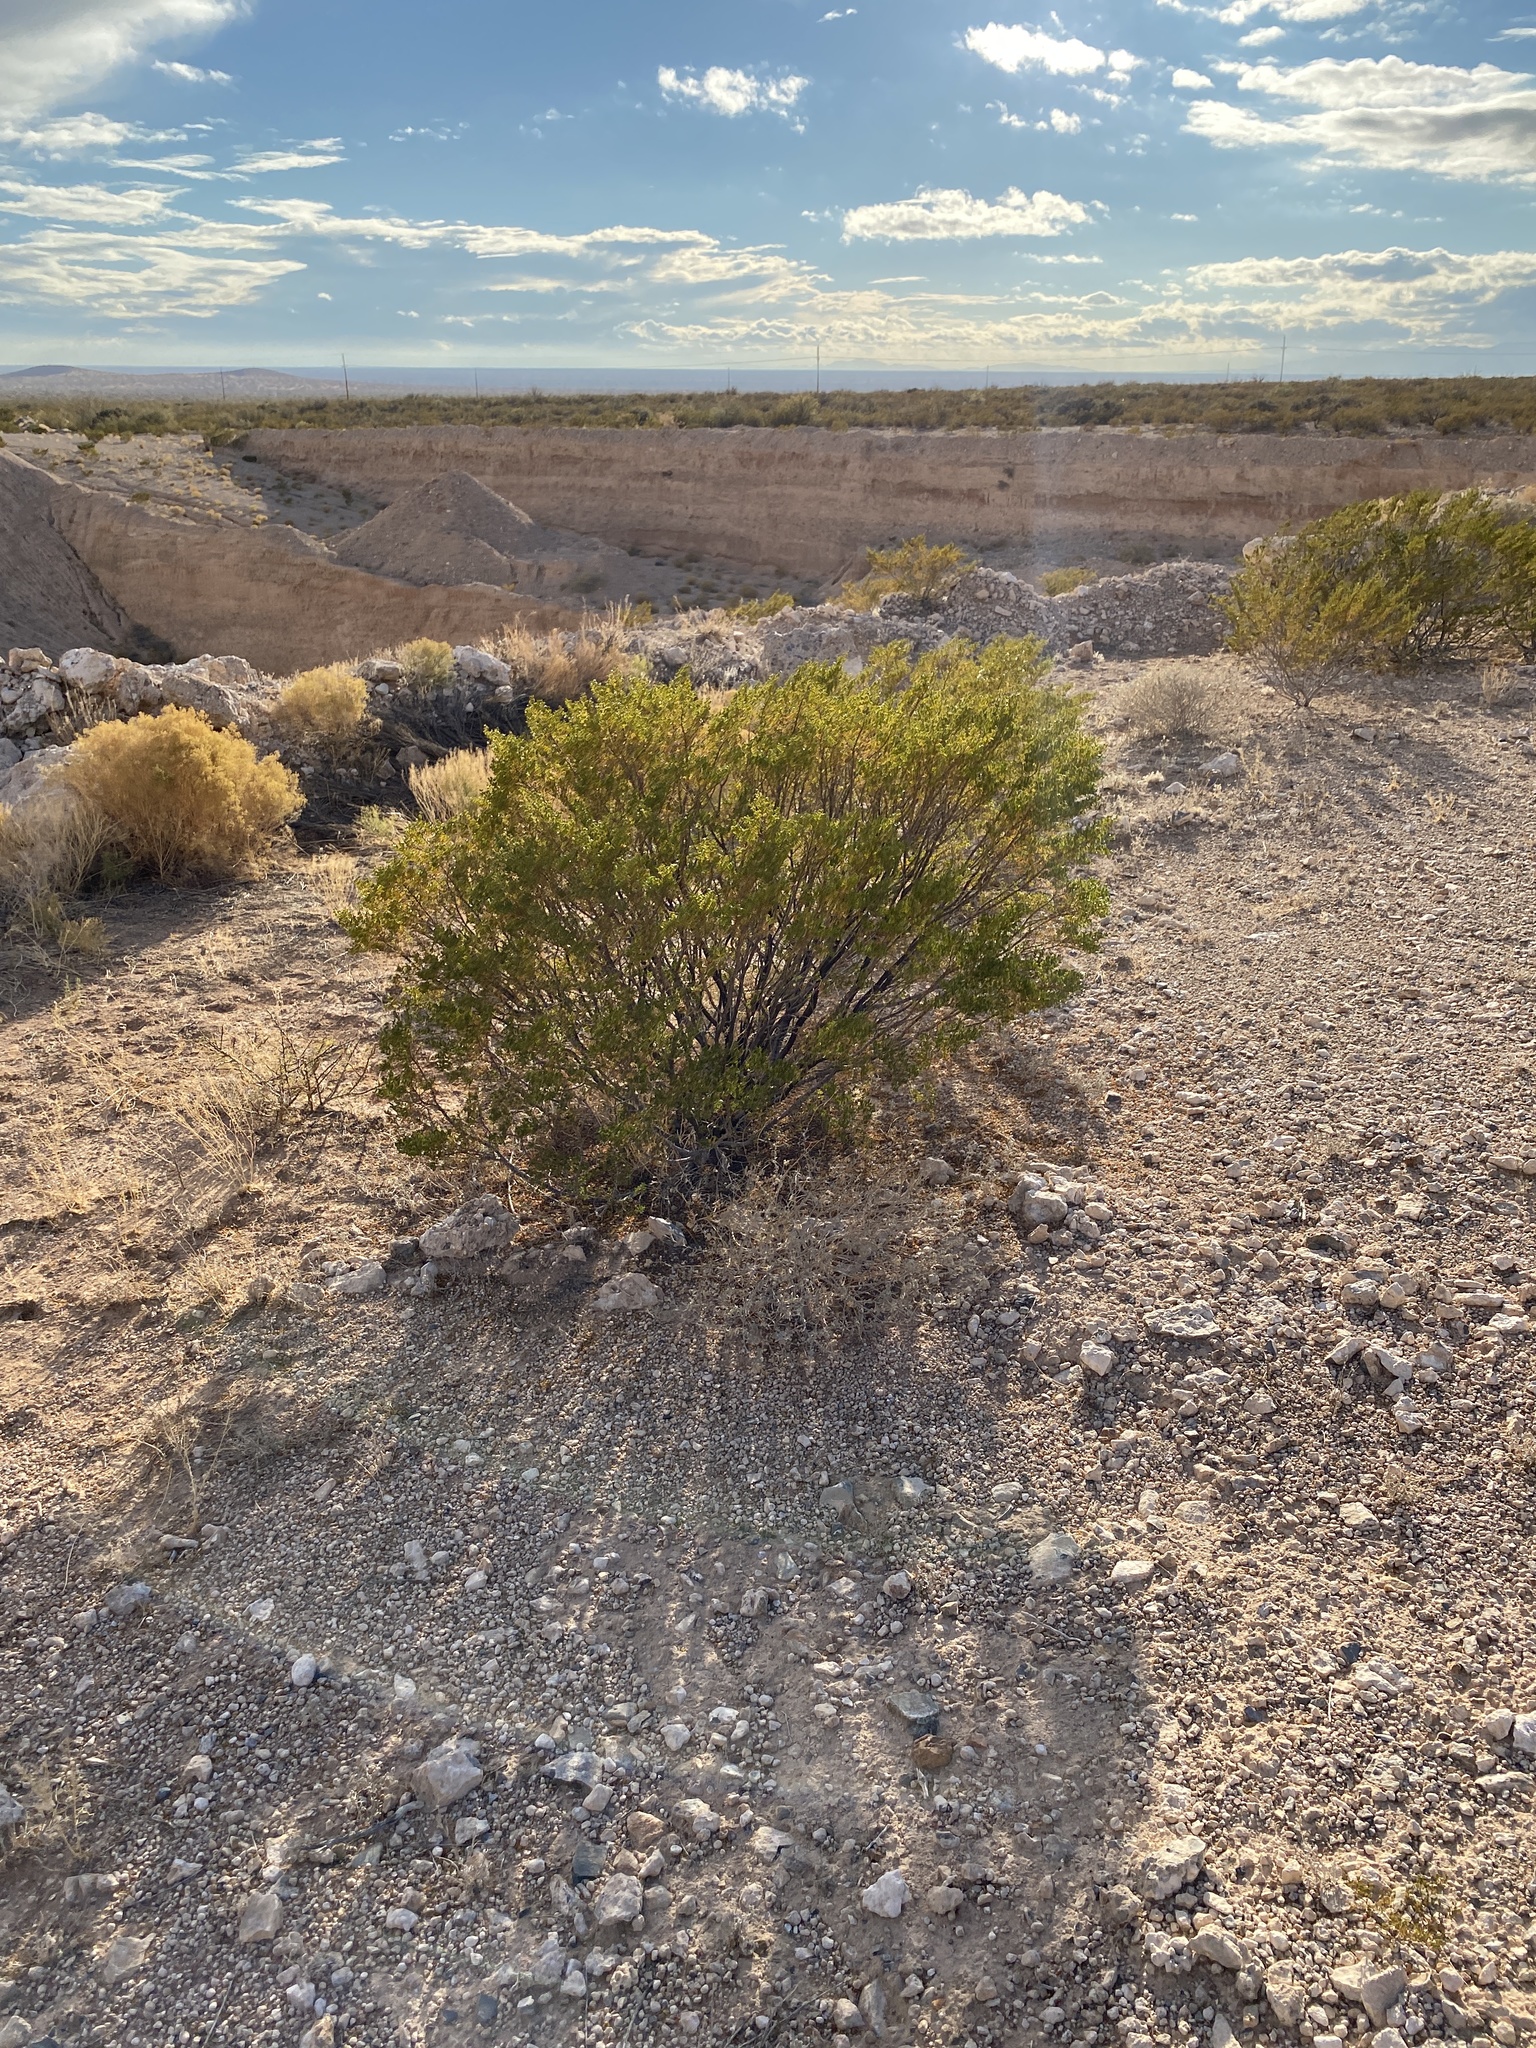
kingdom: Plantae
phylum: Tracheophyta
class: Magnoliopsida
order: Zygophyllales
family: Zygophyllaceae
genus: Larrea
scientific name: Larrea tridentata
